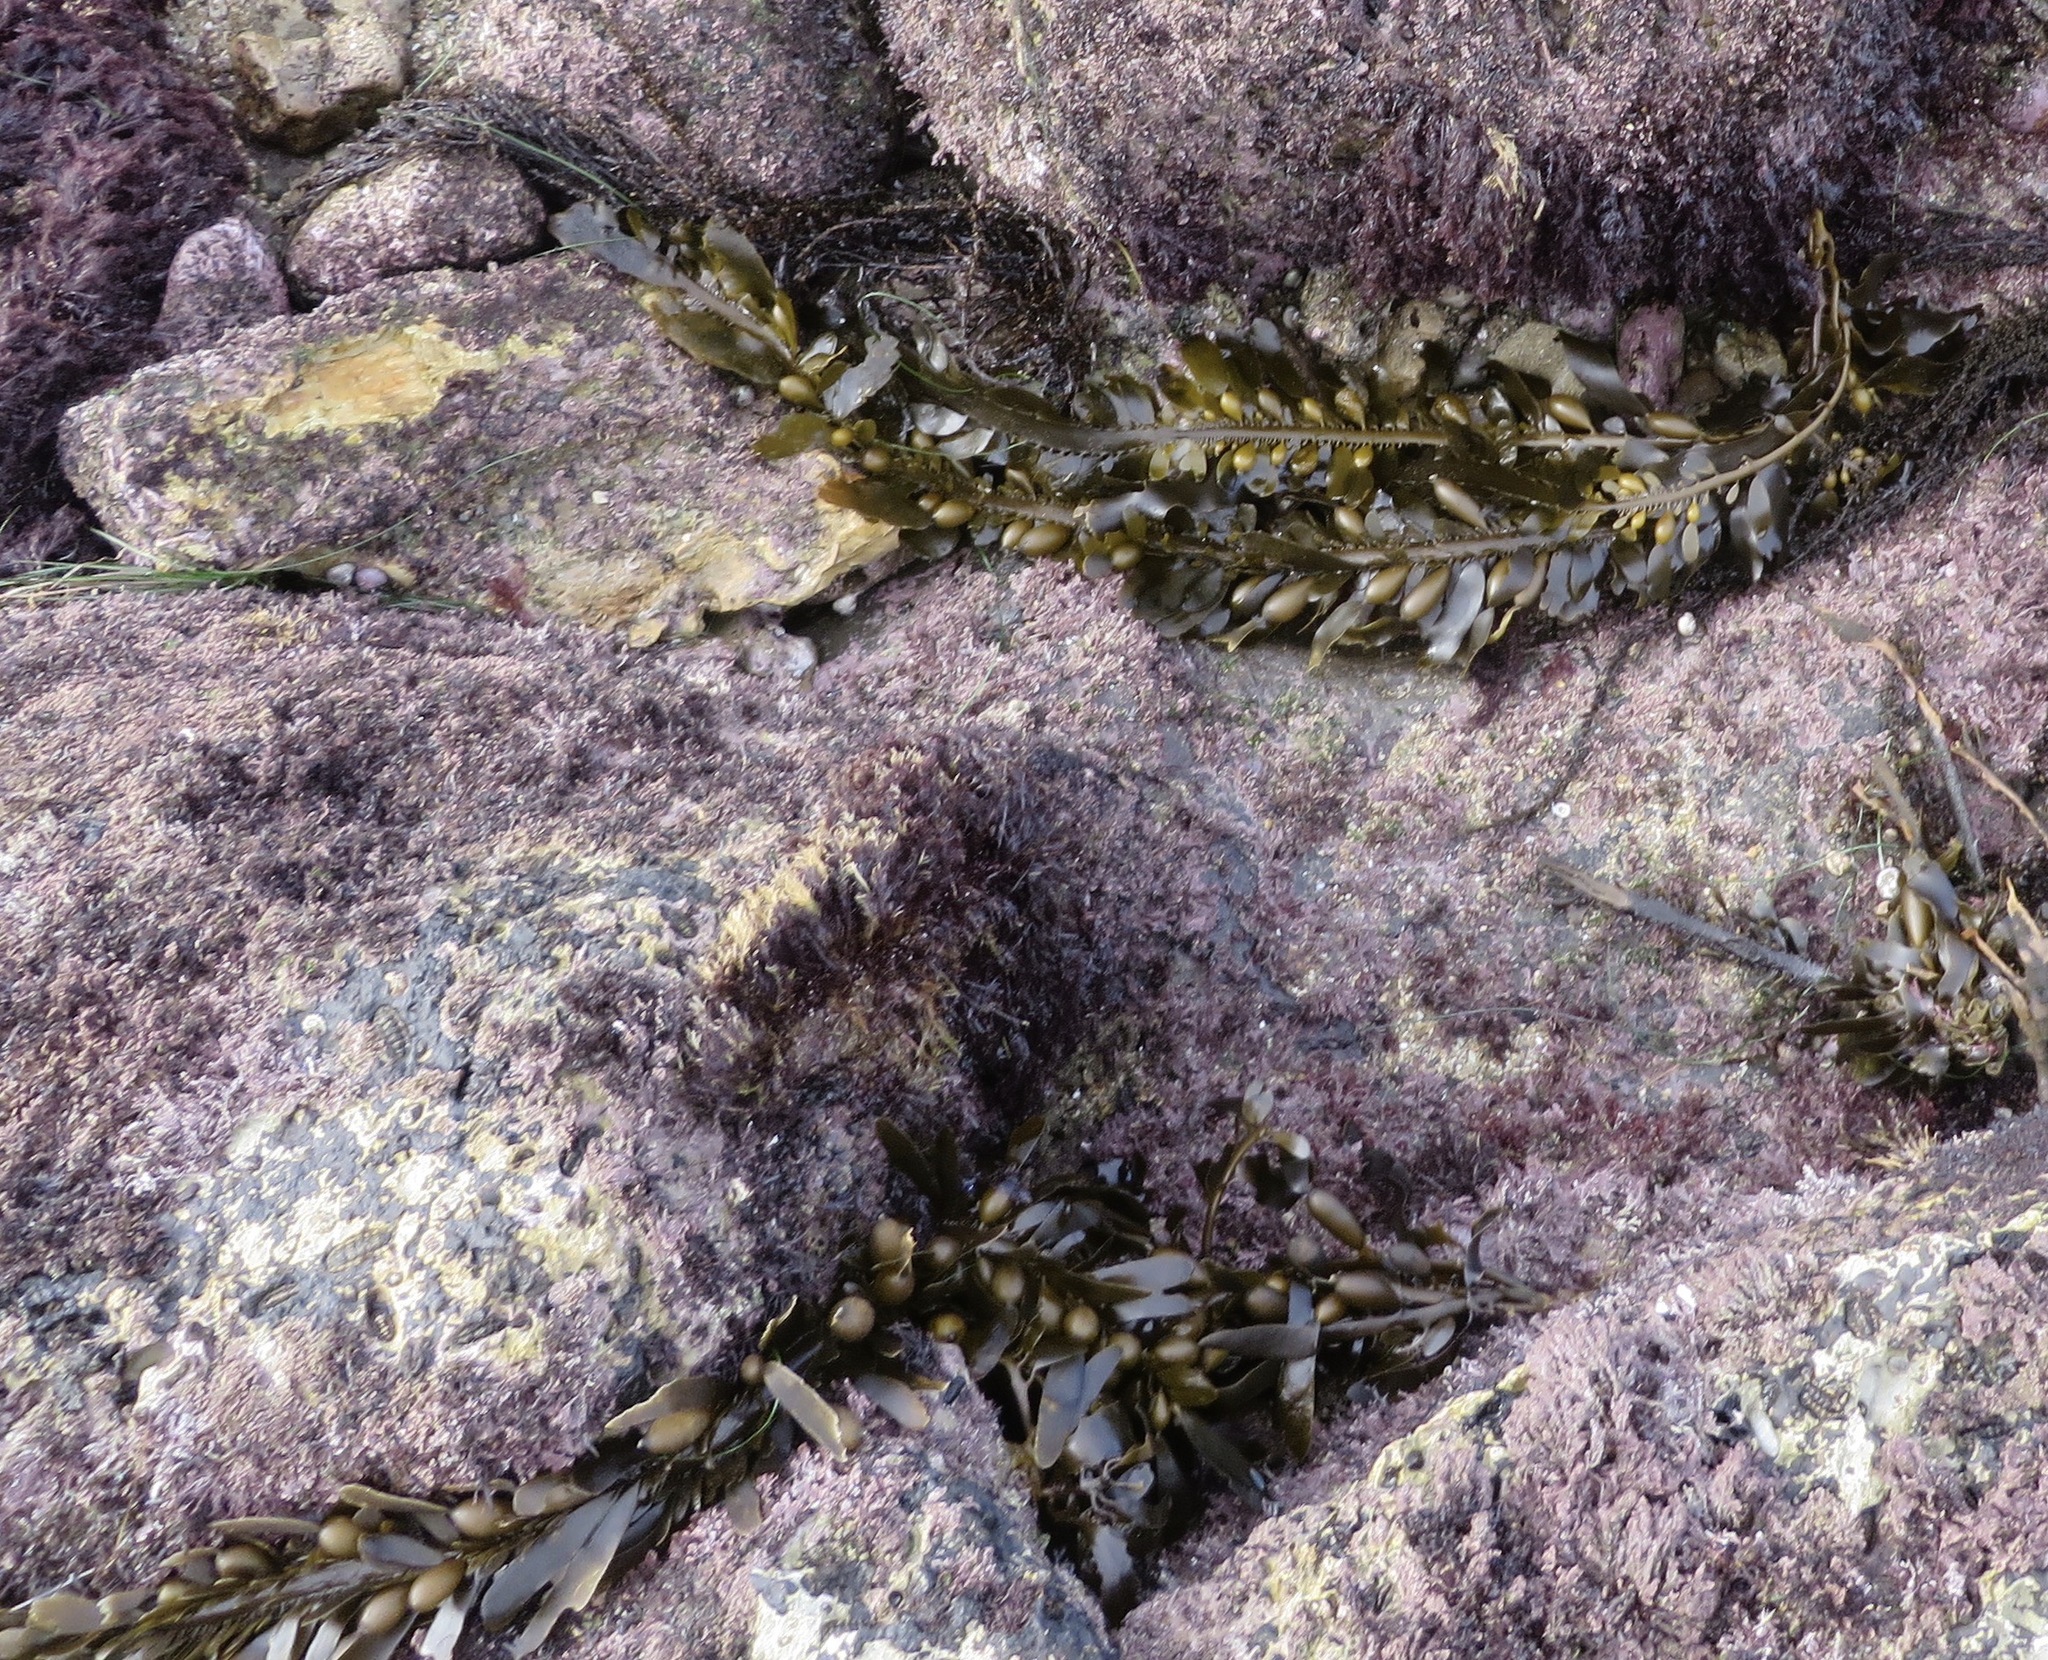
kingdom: Chromista
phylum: Ochrophyta
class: Phaeophyceae
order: Laminariales
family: Lessoniaceae
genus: Egregia
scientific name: Egregia menziesii
